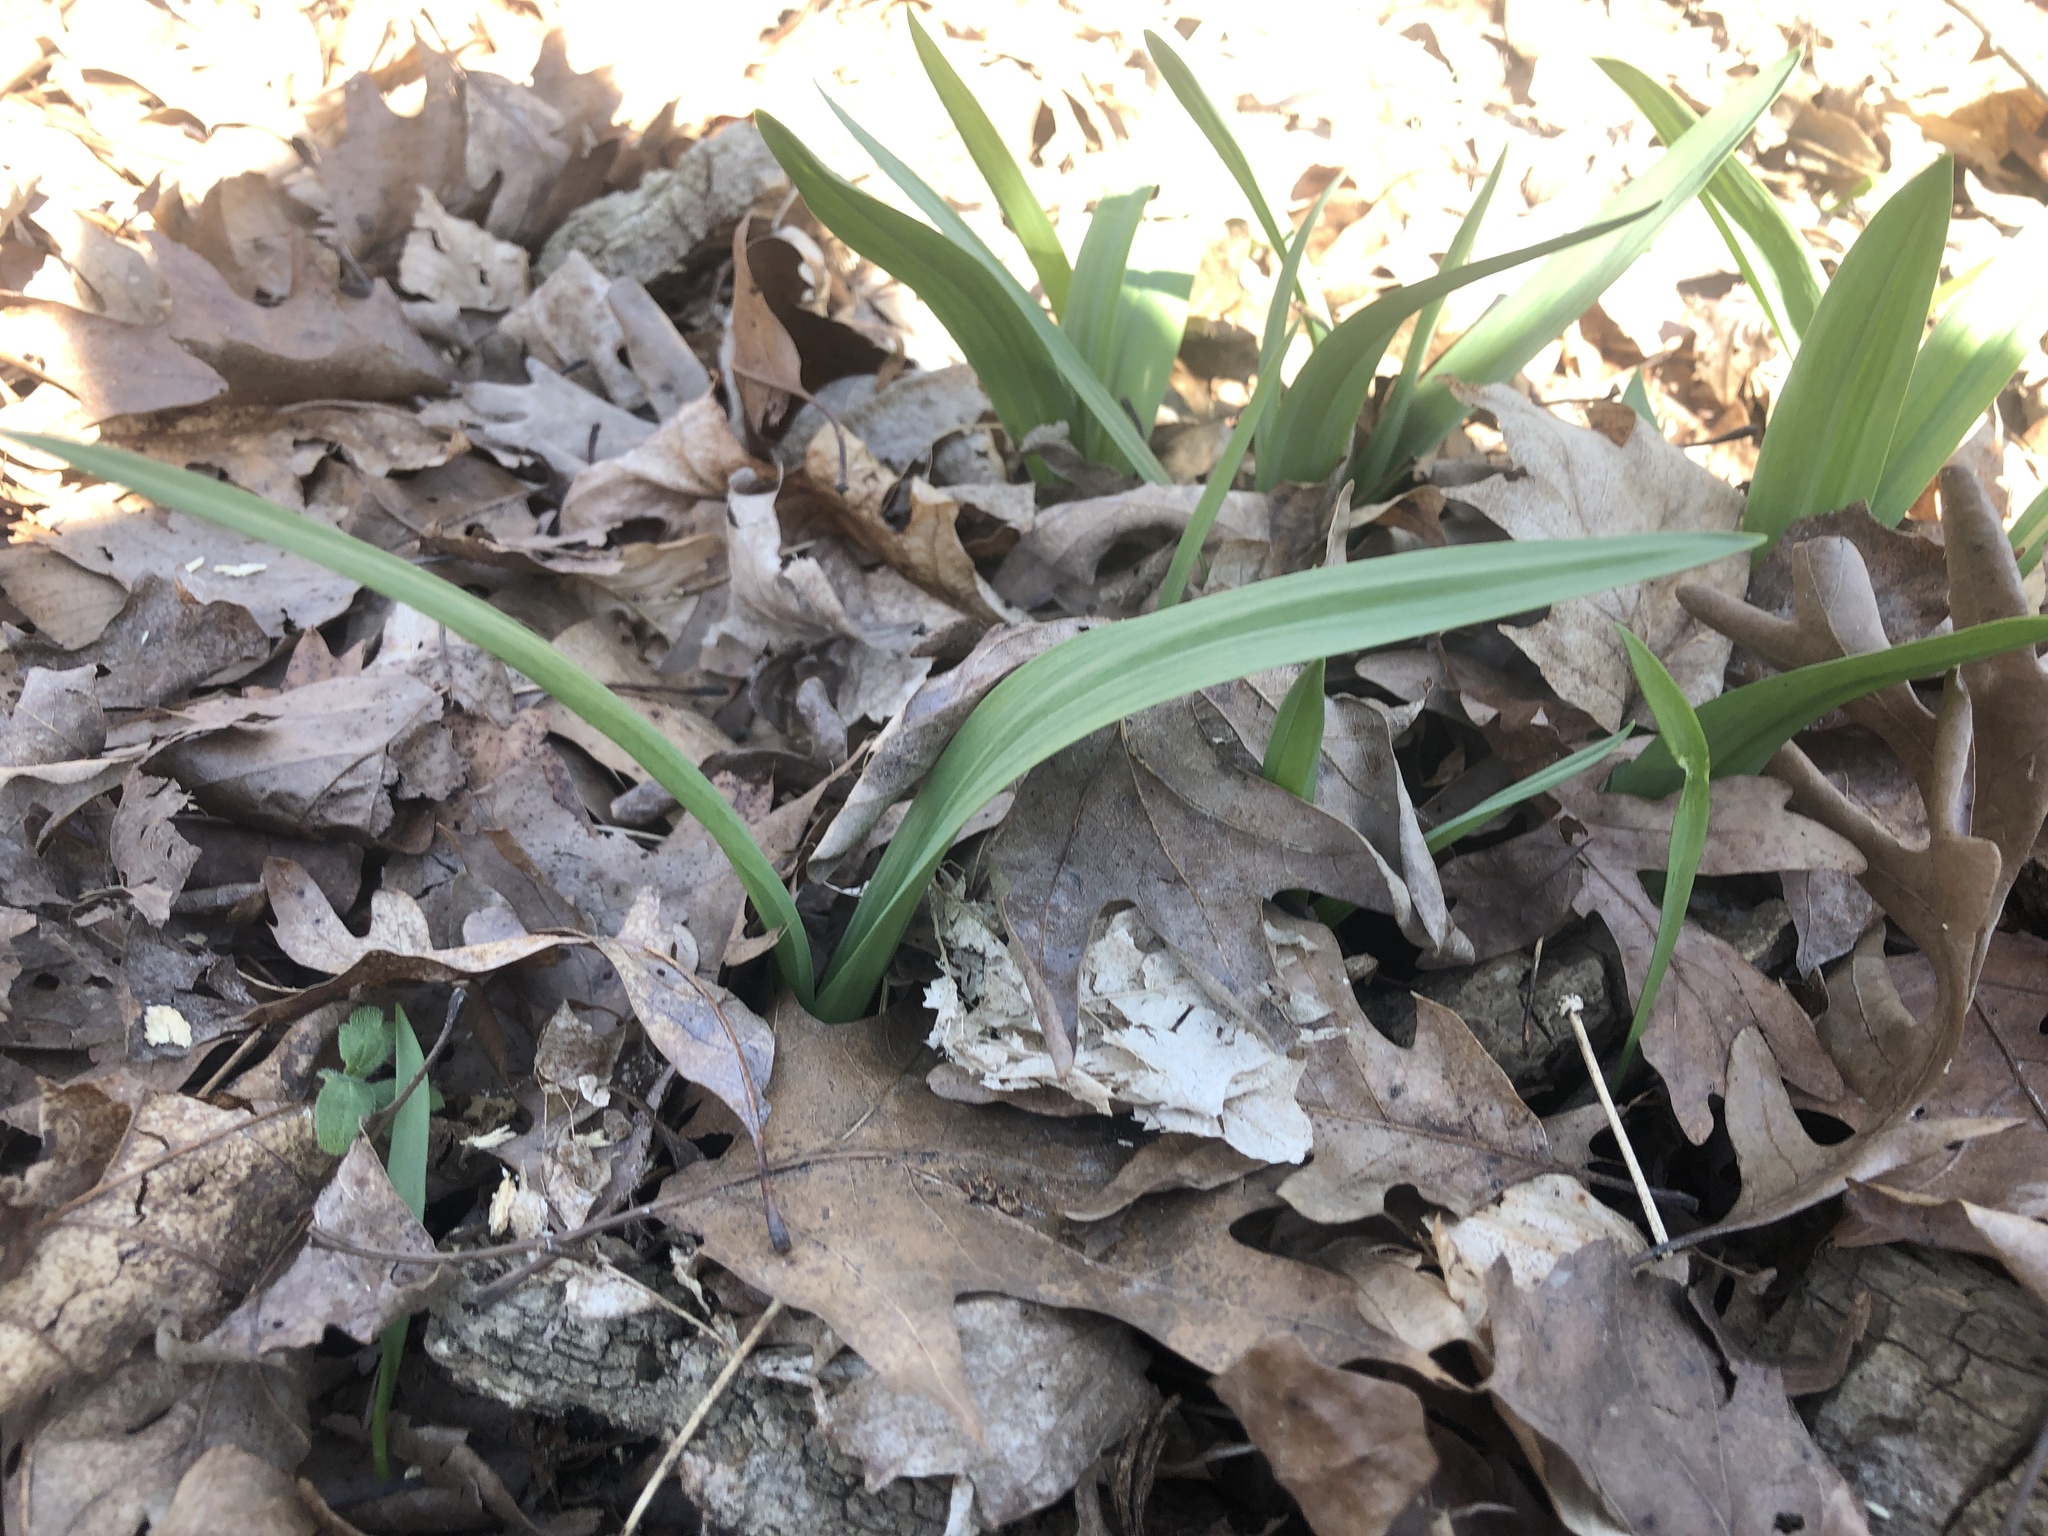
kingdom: Plantae
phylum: Tracheophyta
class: Liliopsida
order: Asparagales
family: Amaryllidaceae
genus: Allium
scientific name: Allium tricoccum
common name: Ramp
